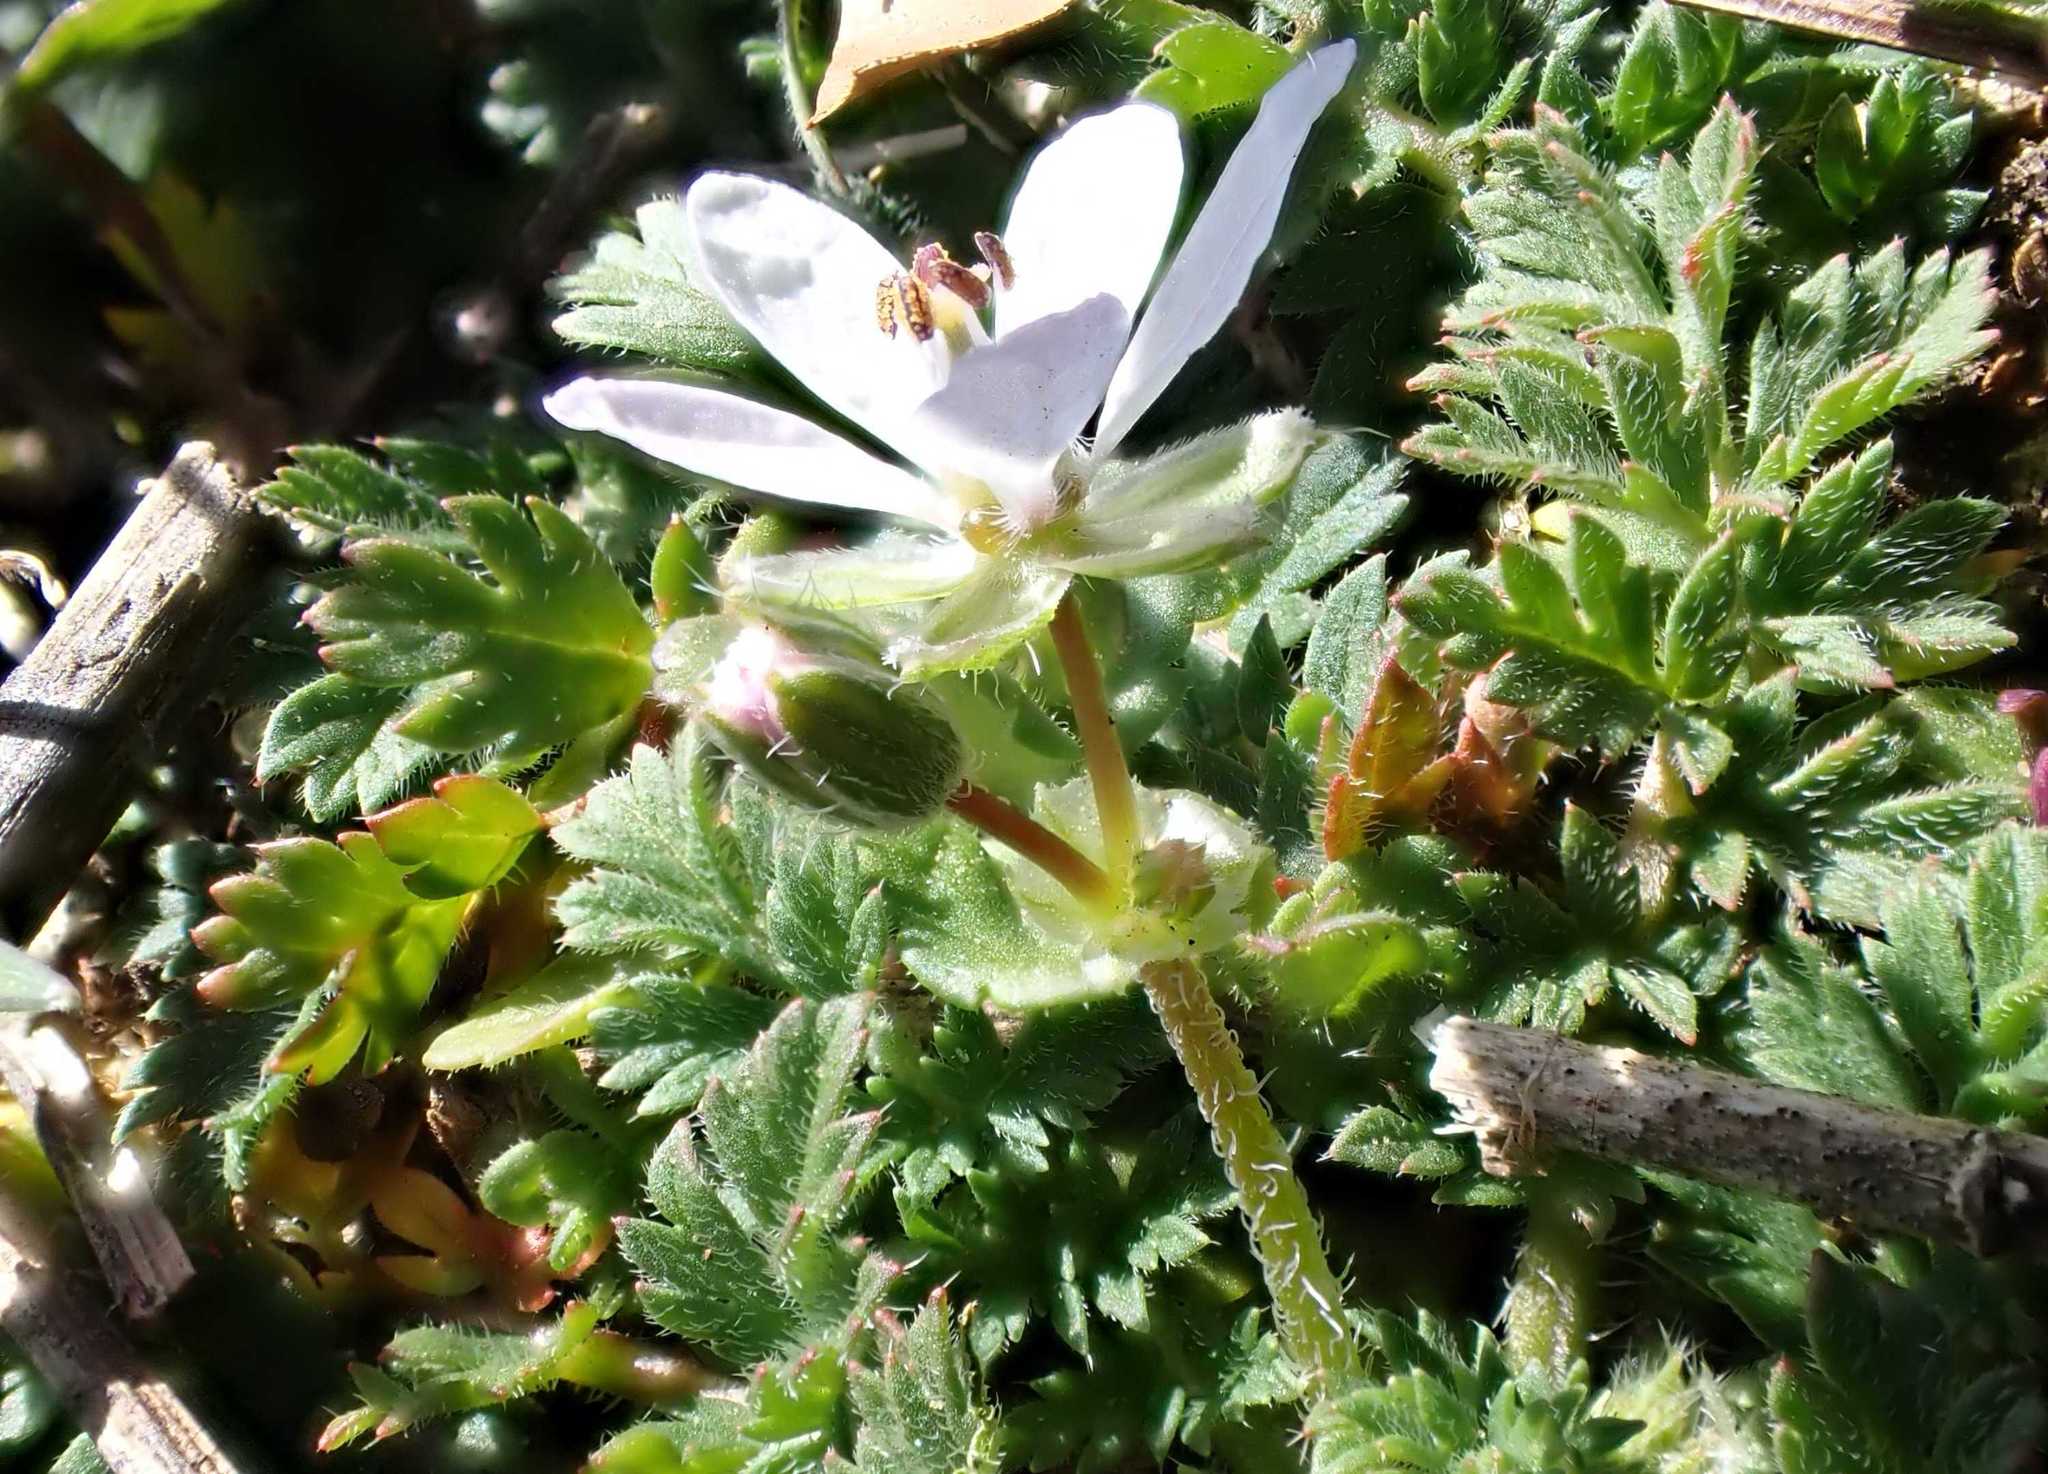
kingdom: Plantae
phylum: Tracheophyta
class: Magnoliopsida
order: Geraniales
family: Geraniaceae
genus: Erodium
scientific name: Erodium cicutarium
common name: Common stork's-bill
